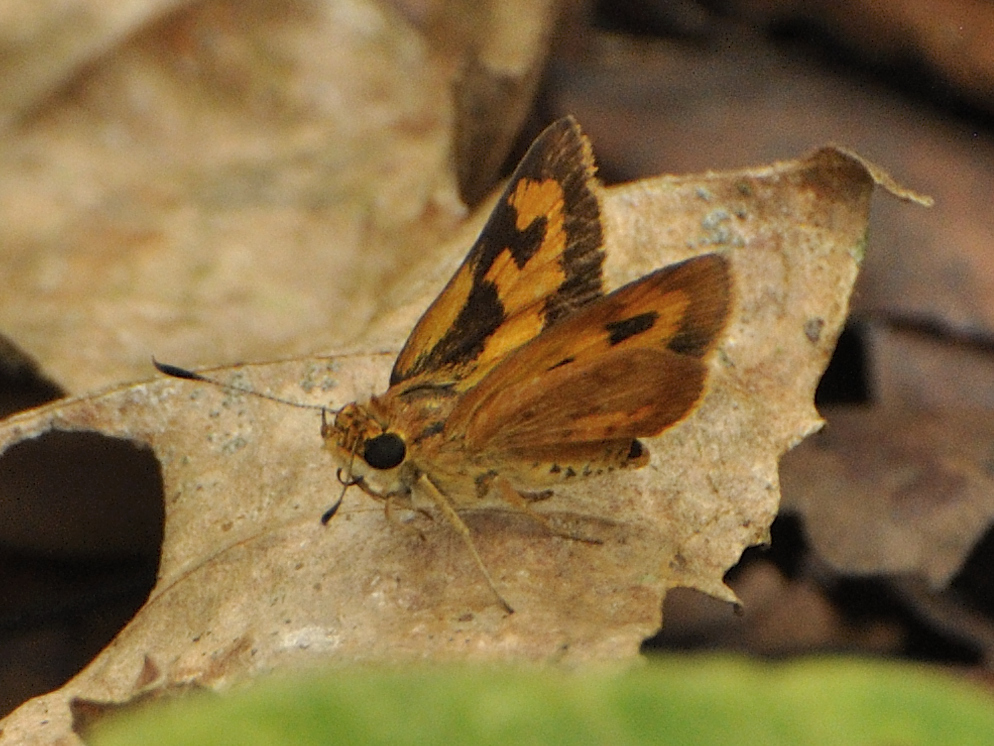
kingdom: Animalia
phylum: Arthropoda
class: Insecta
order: Lepidoptera
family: Hesperiidae
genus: Acada
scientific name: Acada biseriatus
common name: Axehead orange
